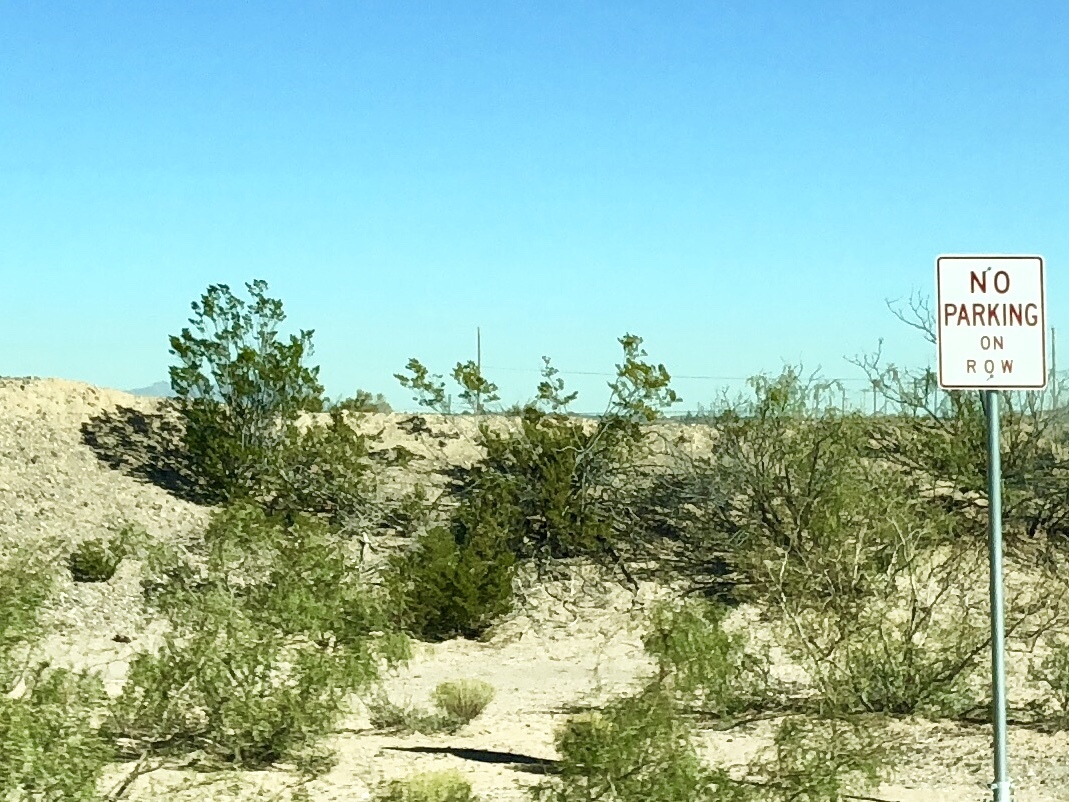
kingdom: Plantae
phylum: Tracheophyta
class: Magnoliopsida
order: Zygophyllales
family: Zygophyllaceae
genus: Larrea
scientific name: Larrea tridentata
